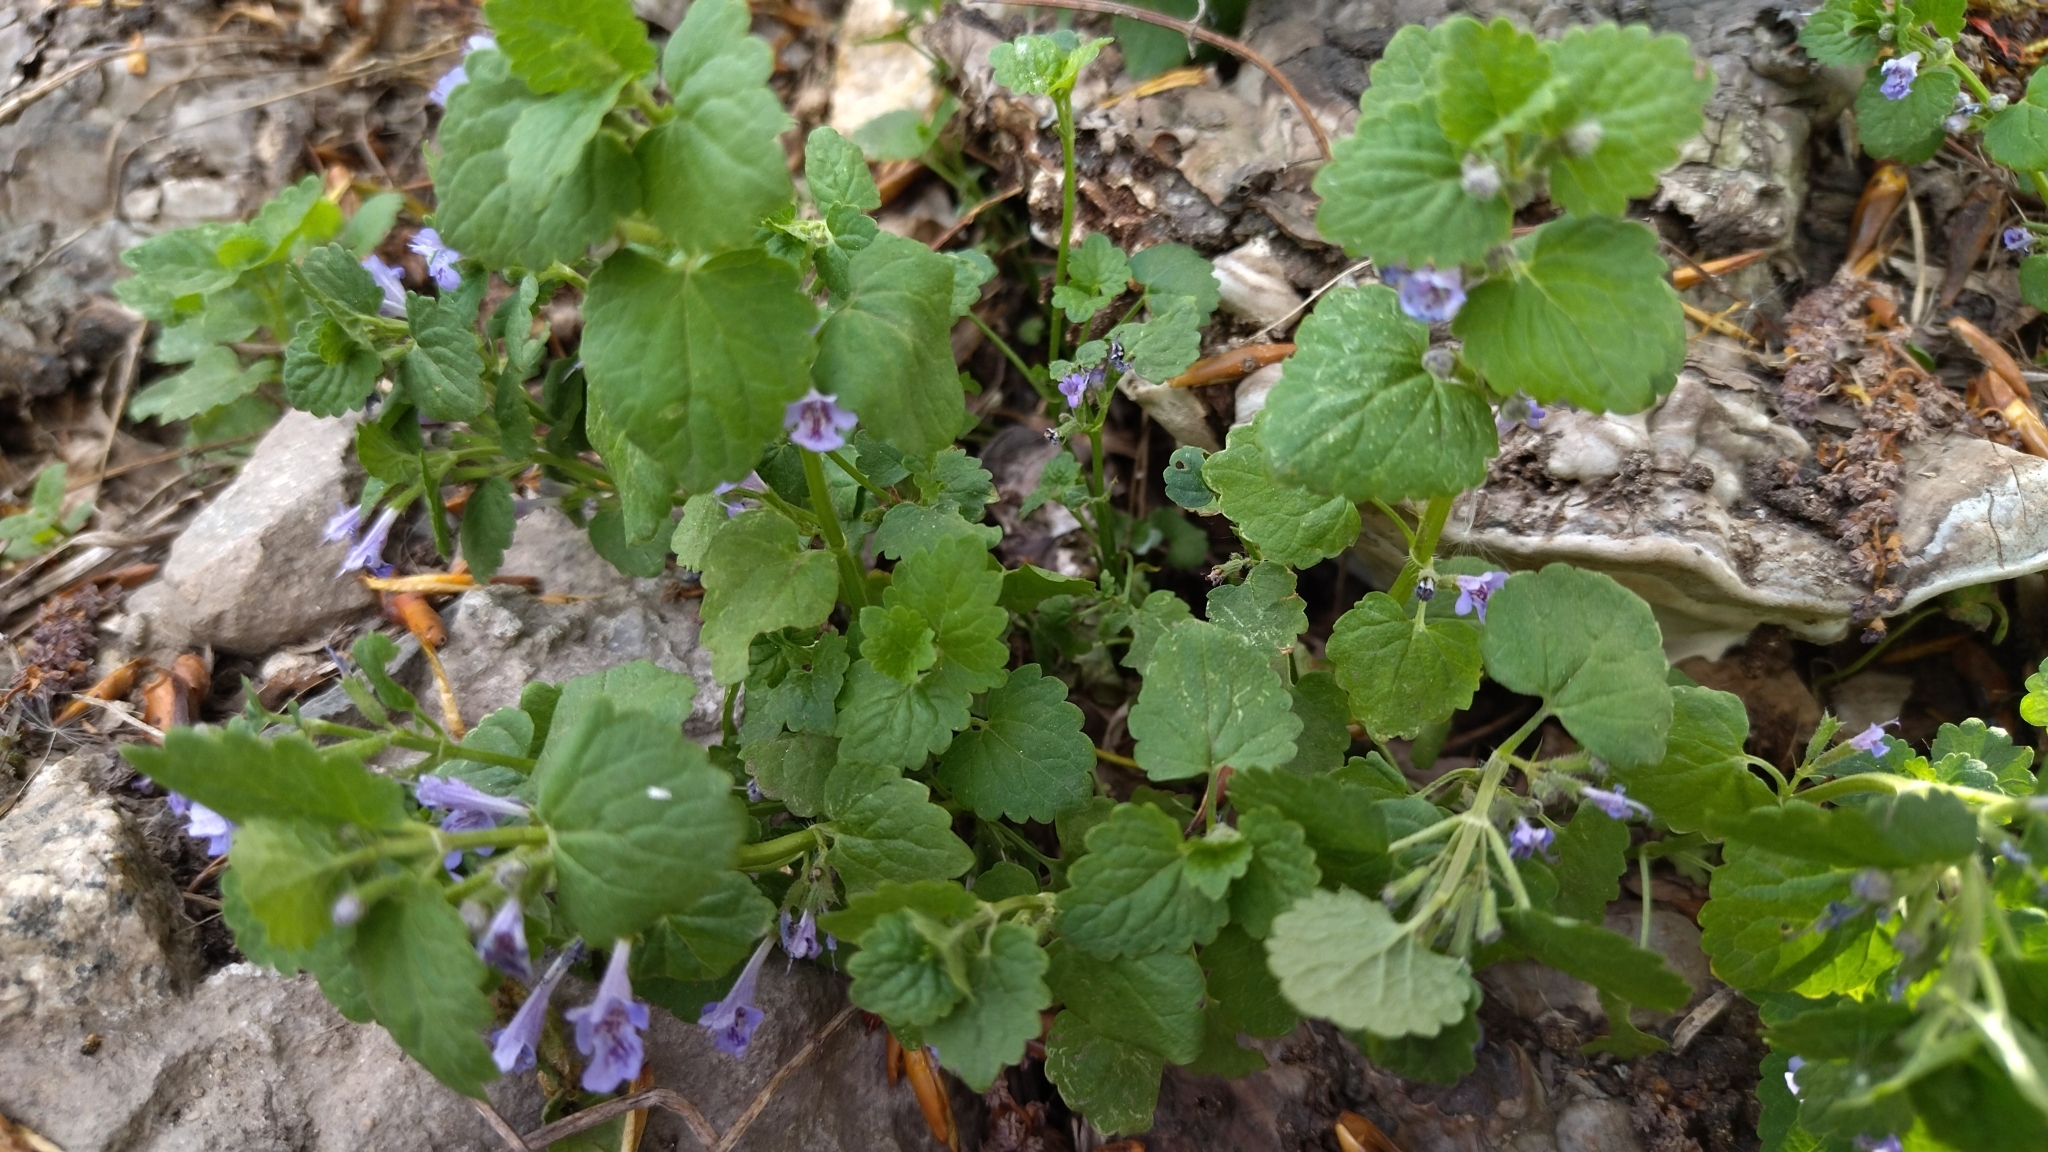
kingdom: Plantae
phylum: Tracheophyta
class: Magnoliopsida
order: Lamiales
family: Lamiaceae
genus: Glechoma
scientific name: Glechoma hederacea
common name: Ground ivy
